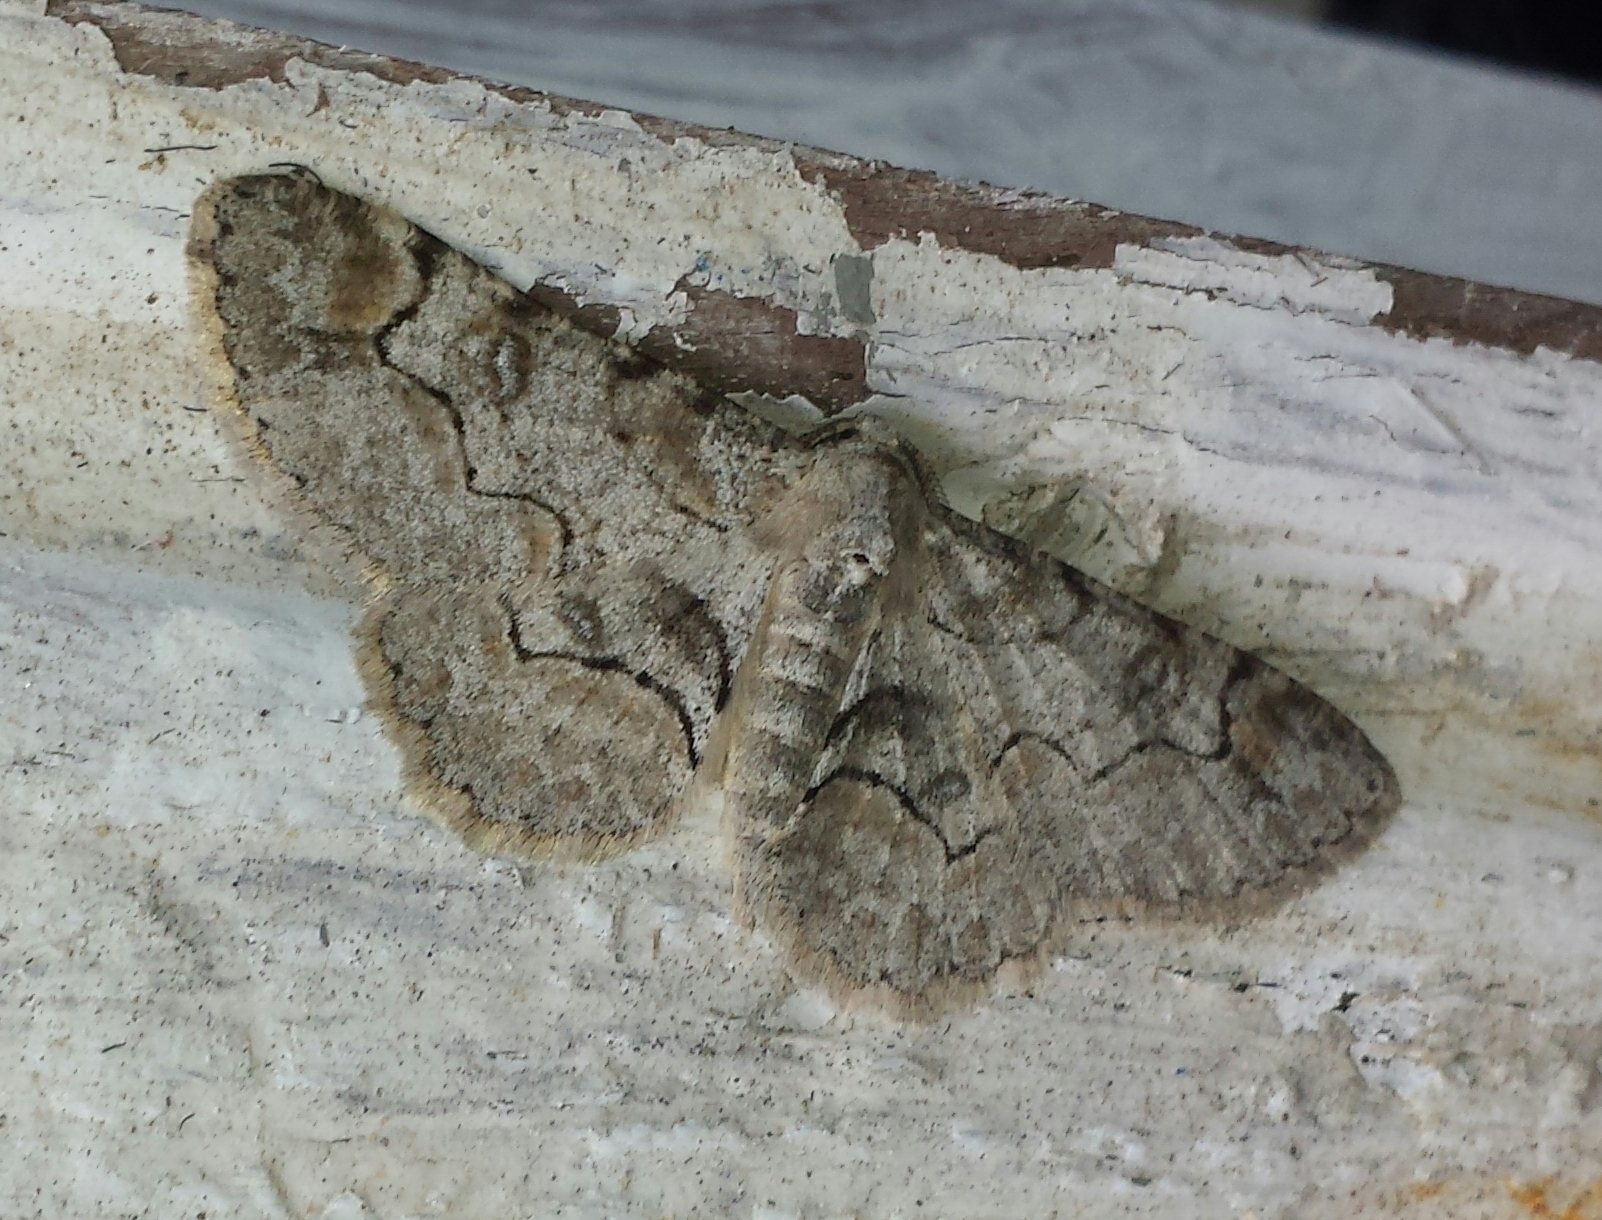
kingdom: Animalia
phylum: Arthropoda
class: Insecta
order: Lepidoptera
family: Geometridae
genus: Iridopsis
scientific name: Iridopsis larvaria
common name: Bent-line gray
